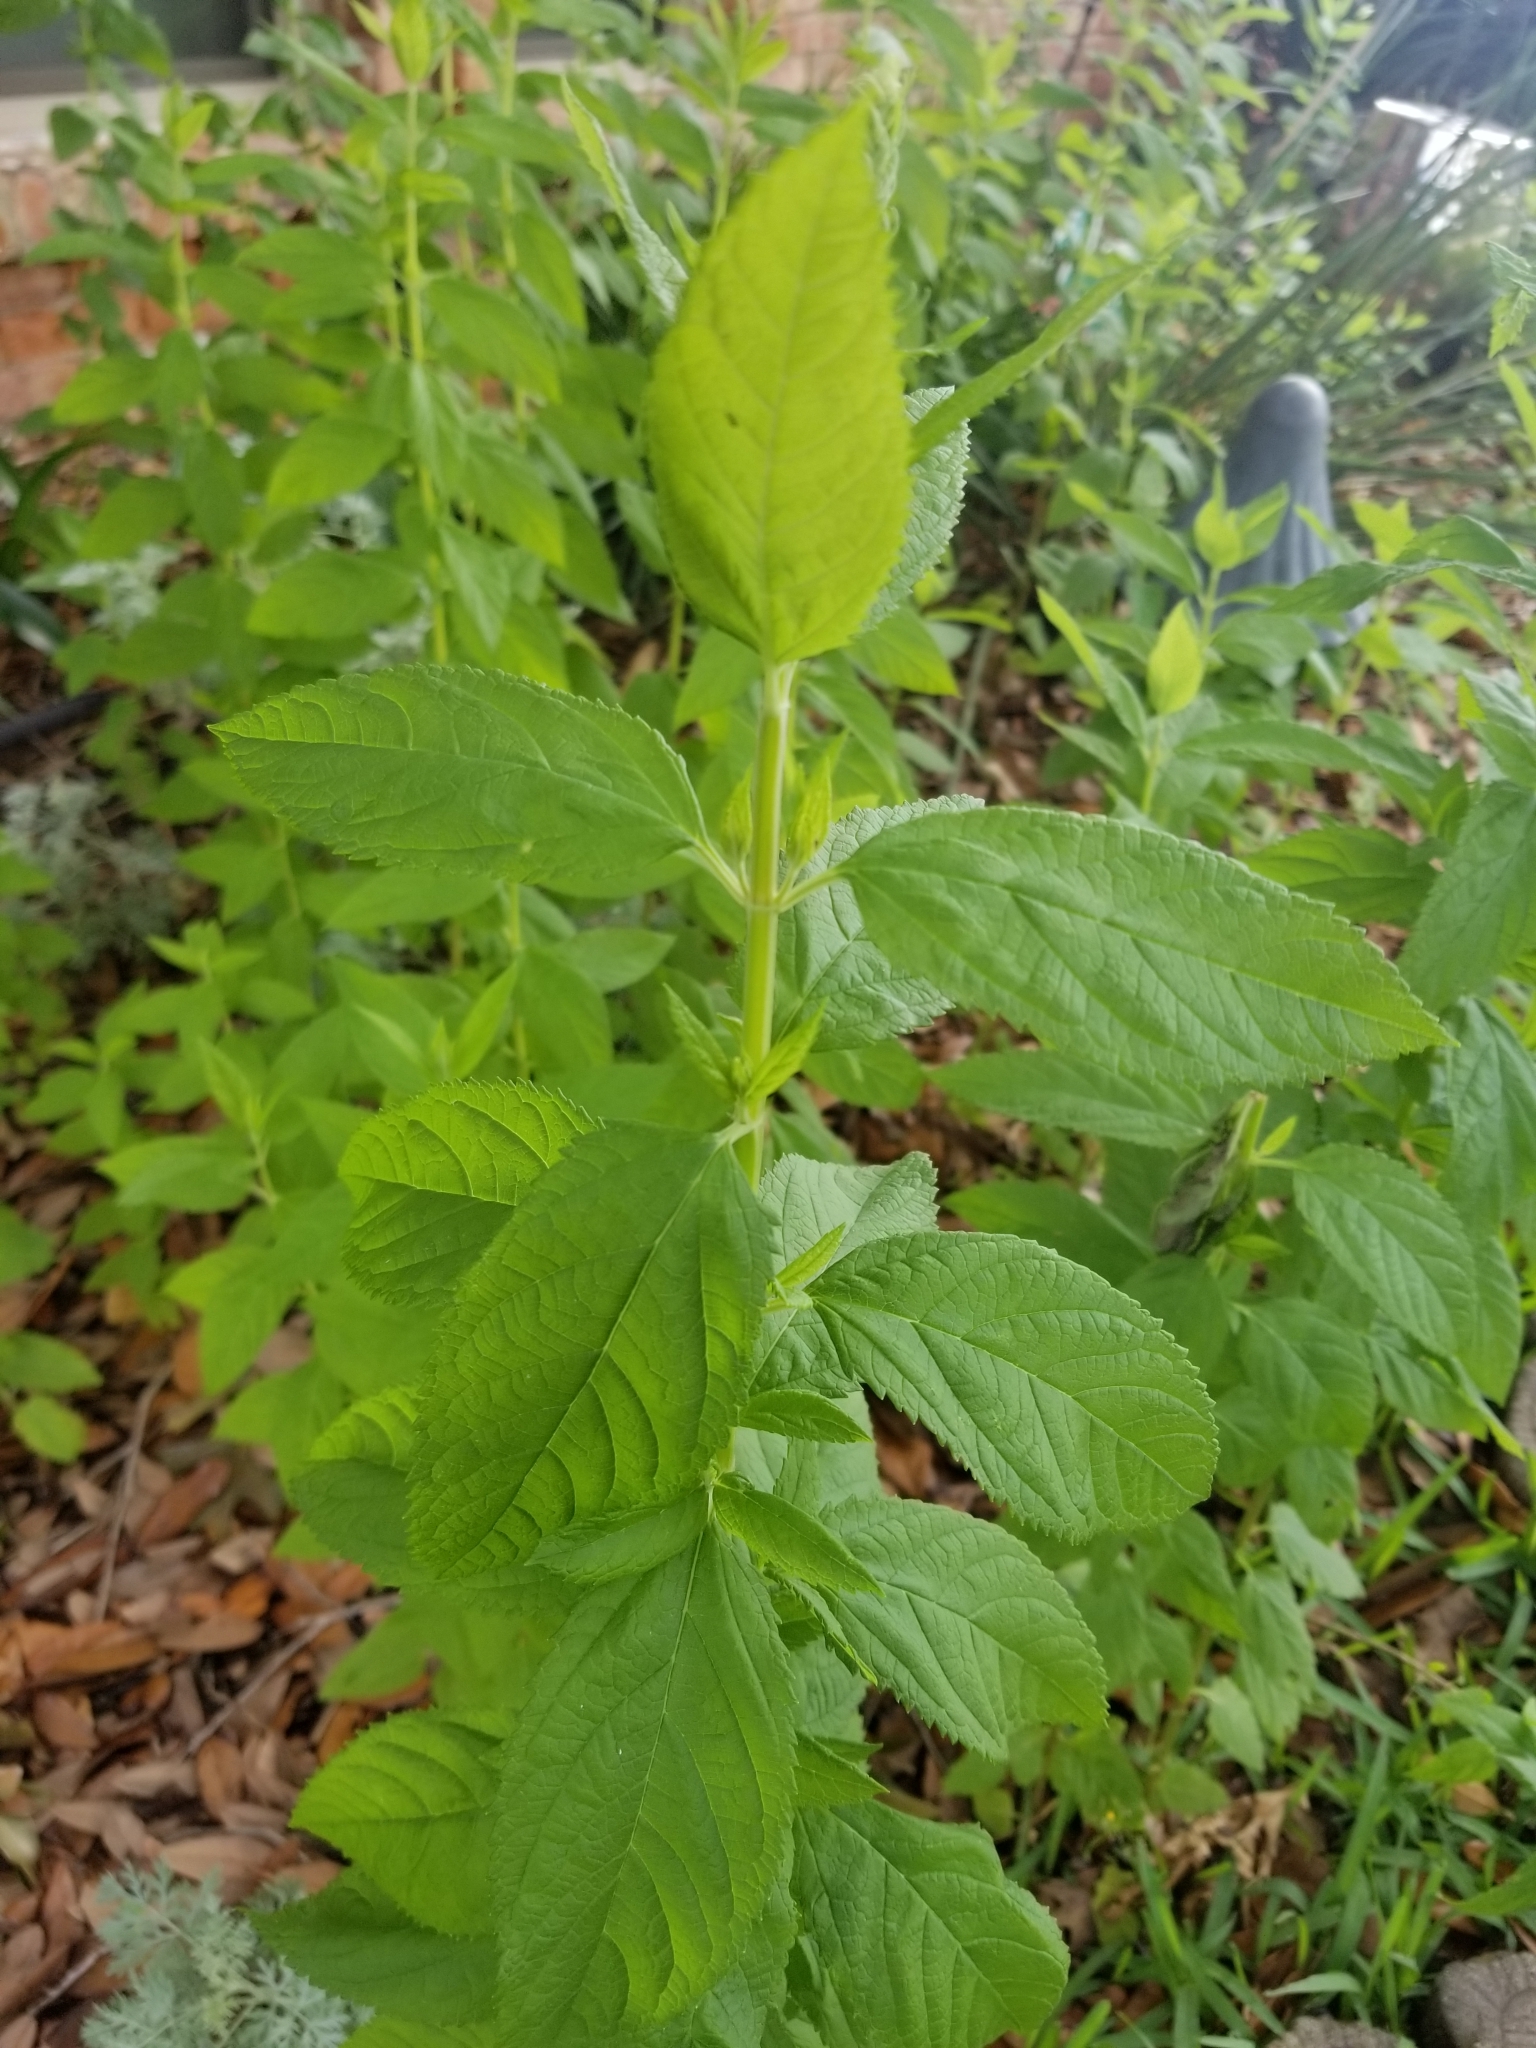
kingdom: Plantae
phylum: Tracheophyta
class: Magnoliopsida
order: Lamiales
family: Lamiaceae
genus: Teucrium
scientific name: Teucrium canadense
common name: American germander
